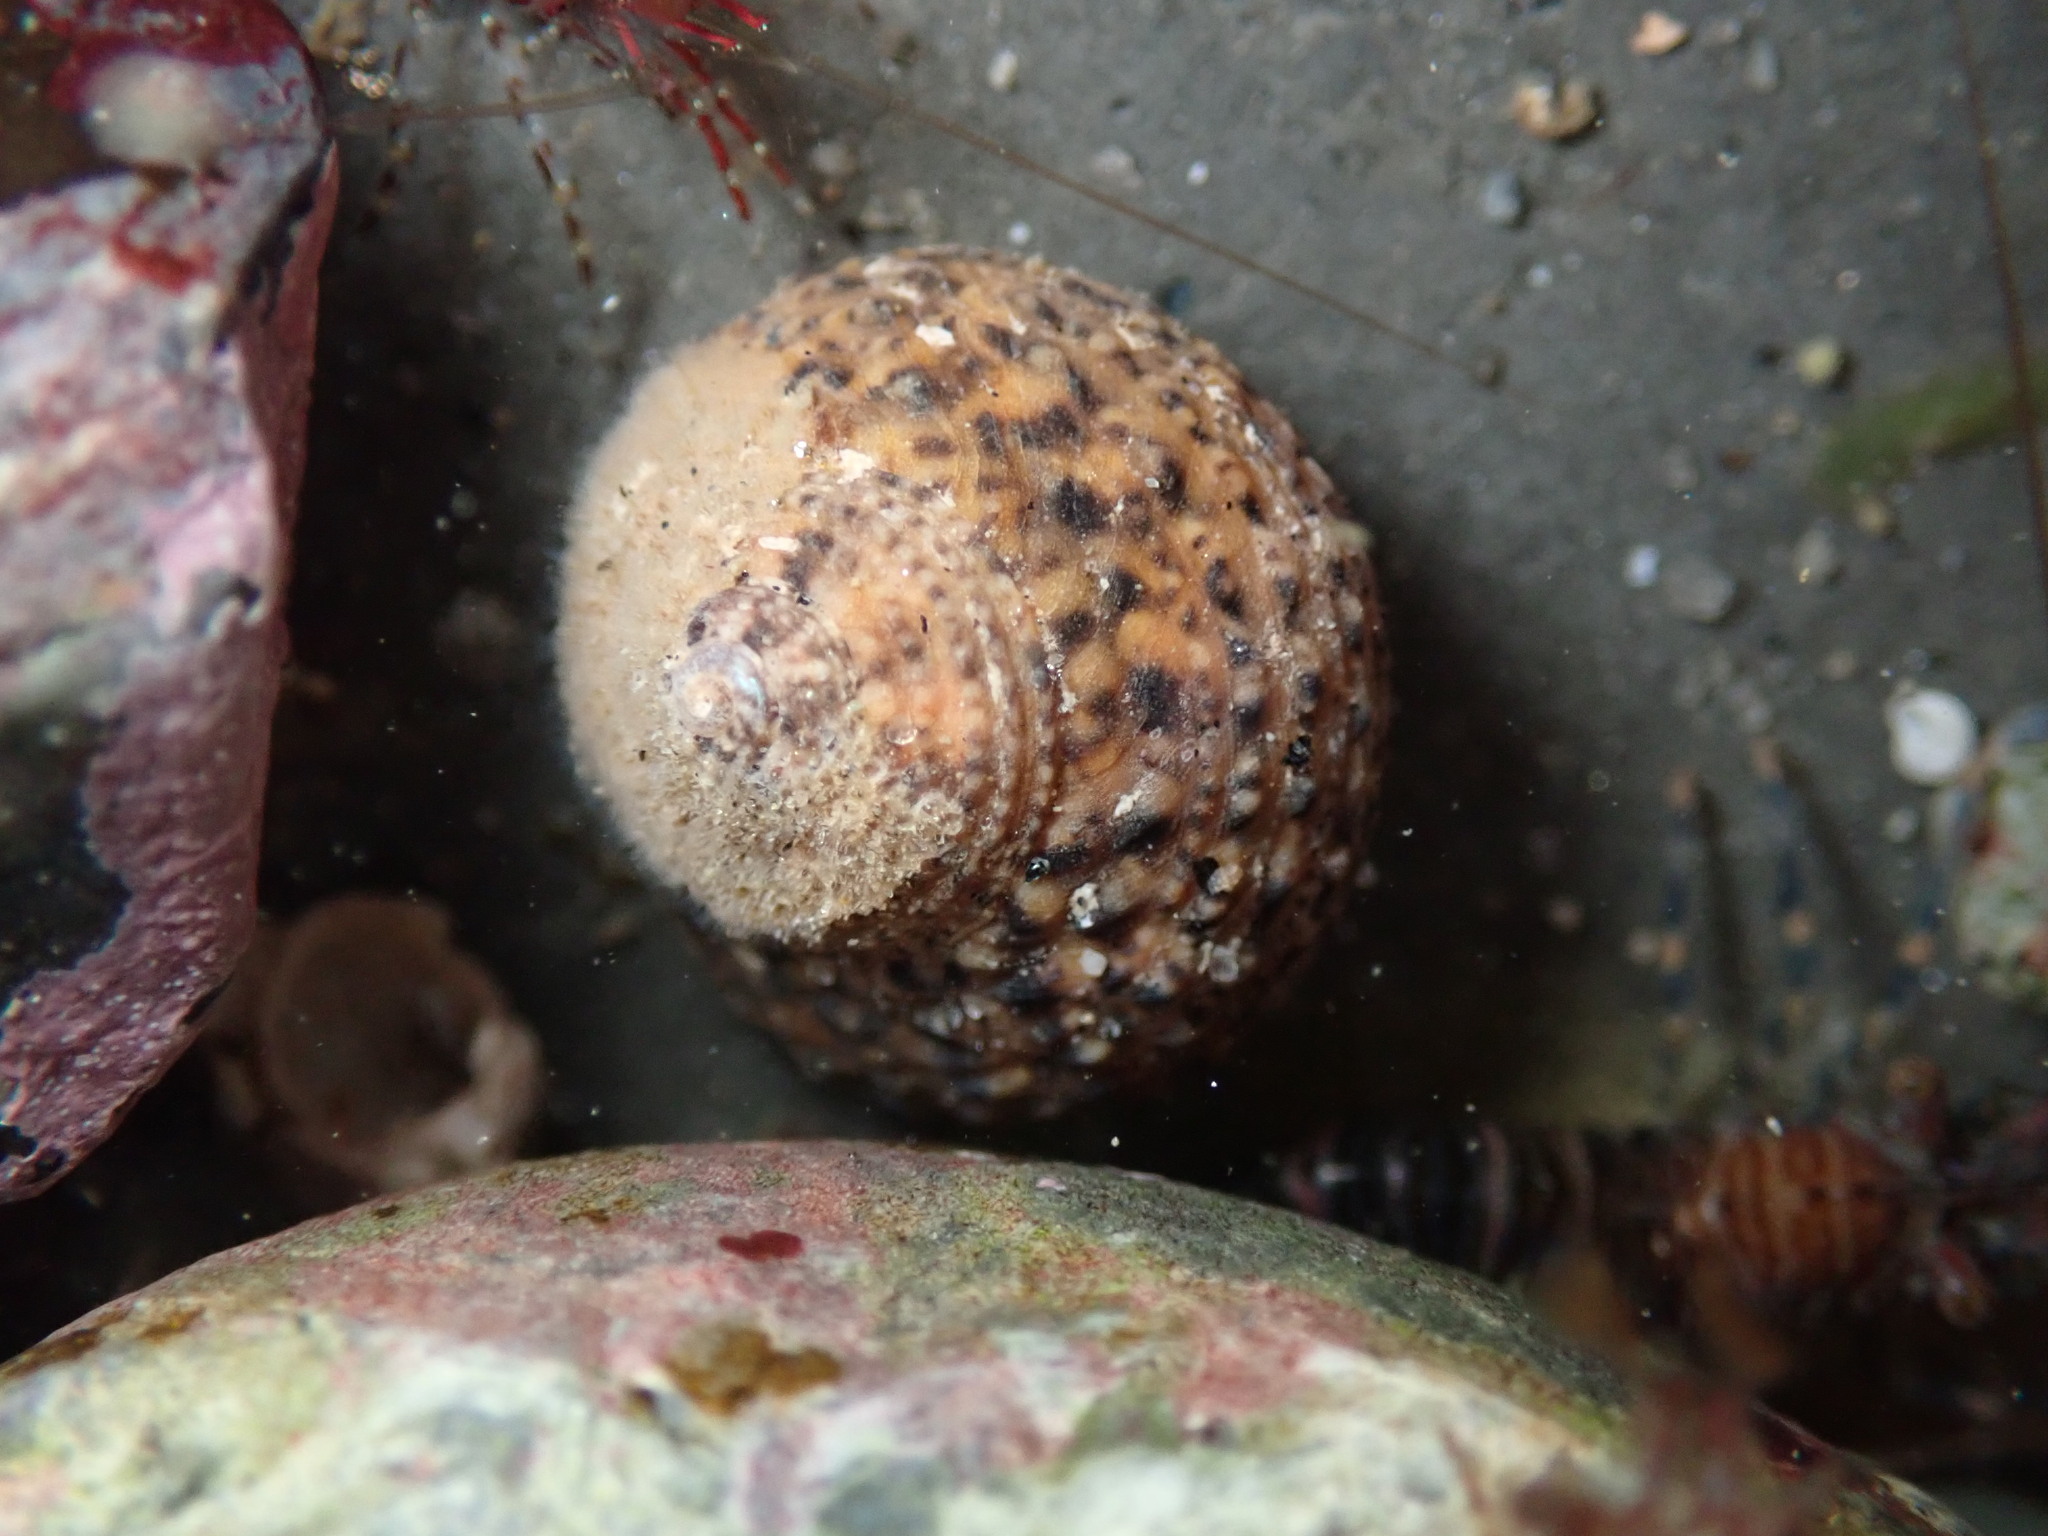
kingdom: Animalia
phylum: Mollusca
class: Gastropoda
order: Trochida
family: Tegulidae
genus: Tegula
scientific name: Tegula eiseni
